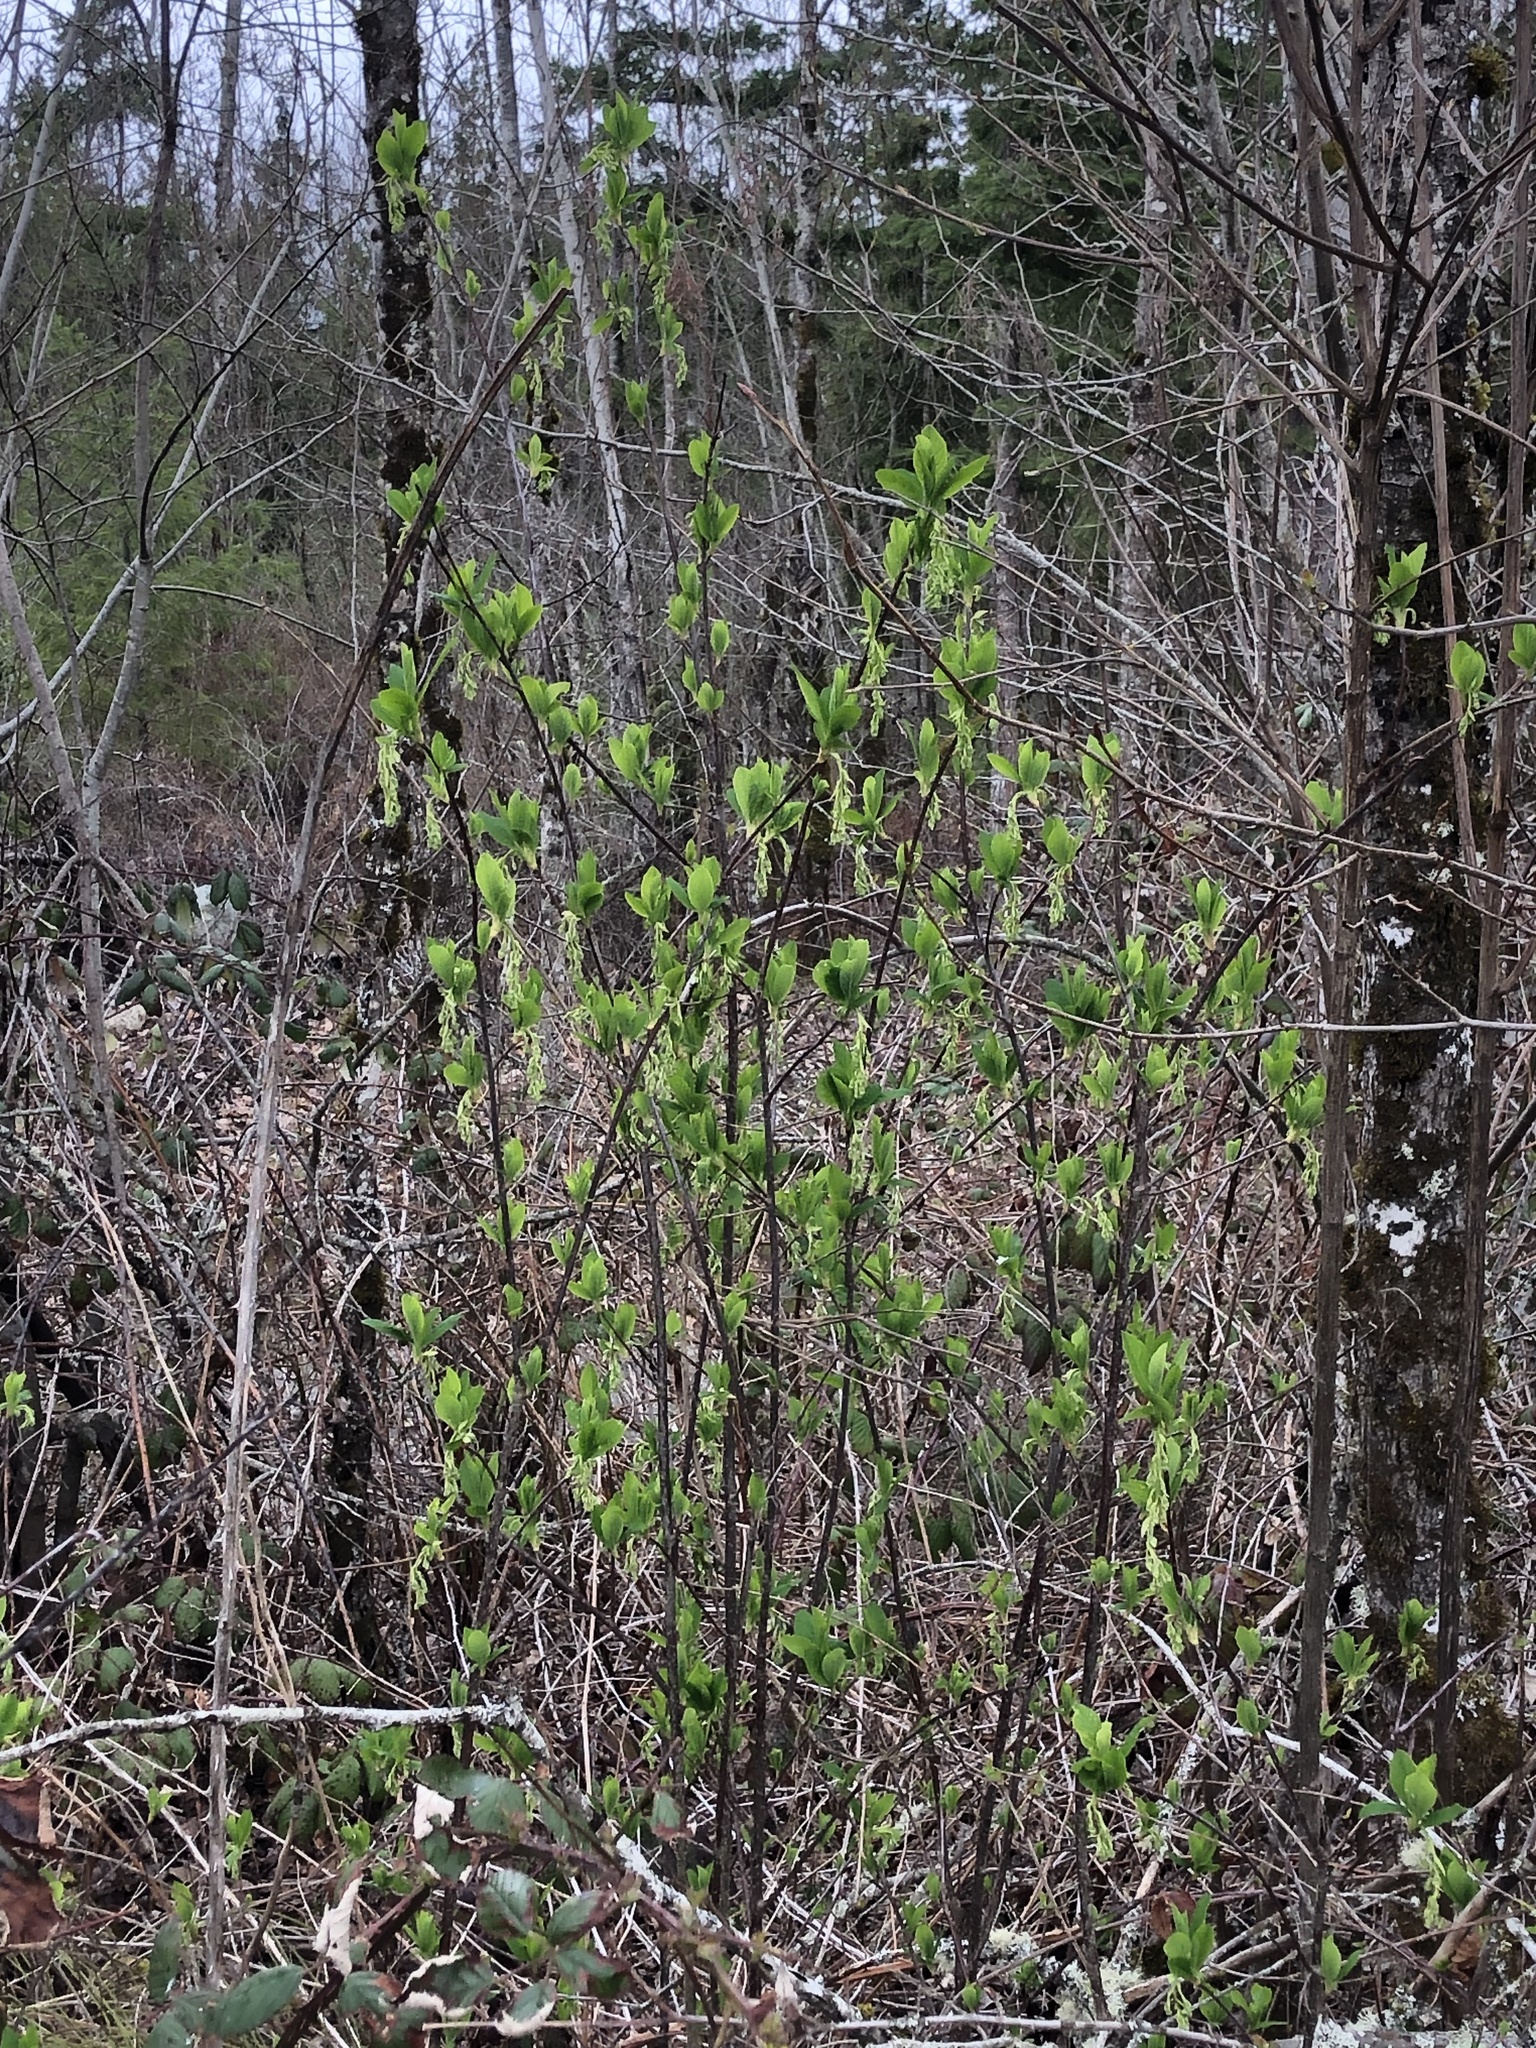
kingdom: Plantae
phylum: Tracheophyta
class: Magnoliopsida
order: Rosales
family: Rosaceae
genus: Oemleria
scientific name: Oemleria cerasiformis
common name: Osoberry
